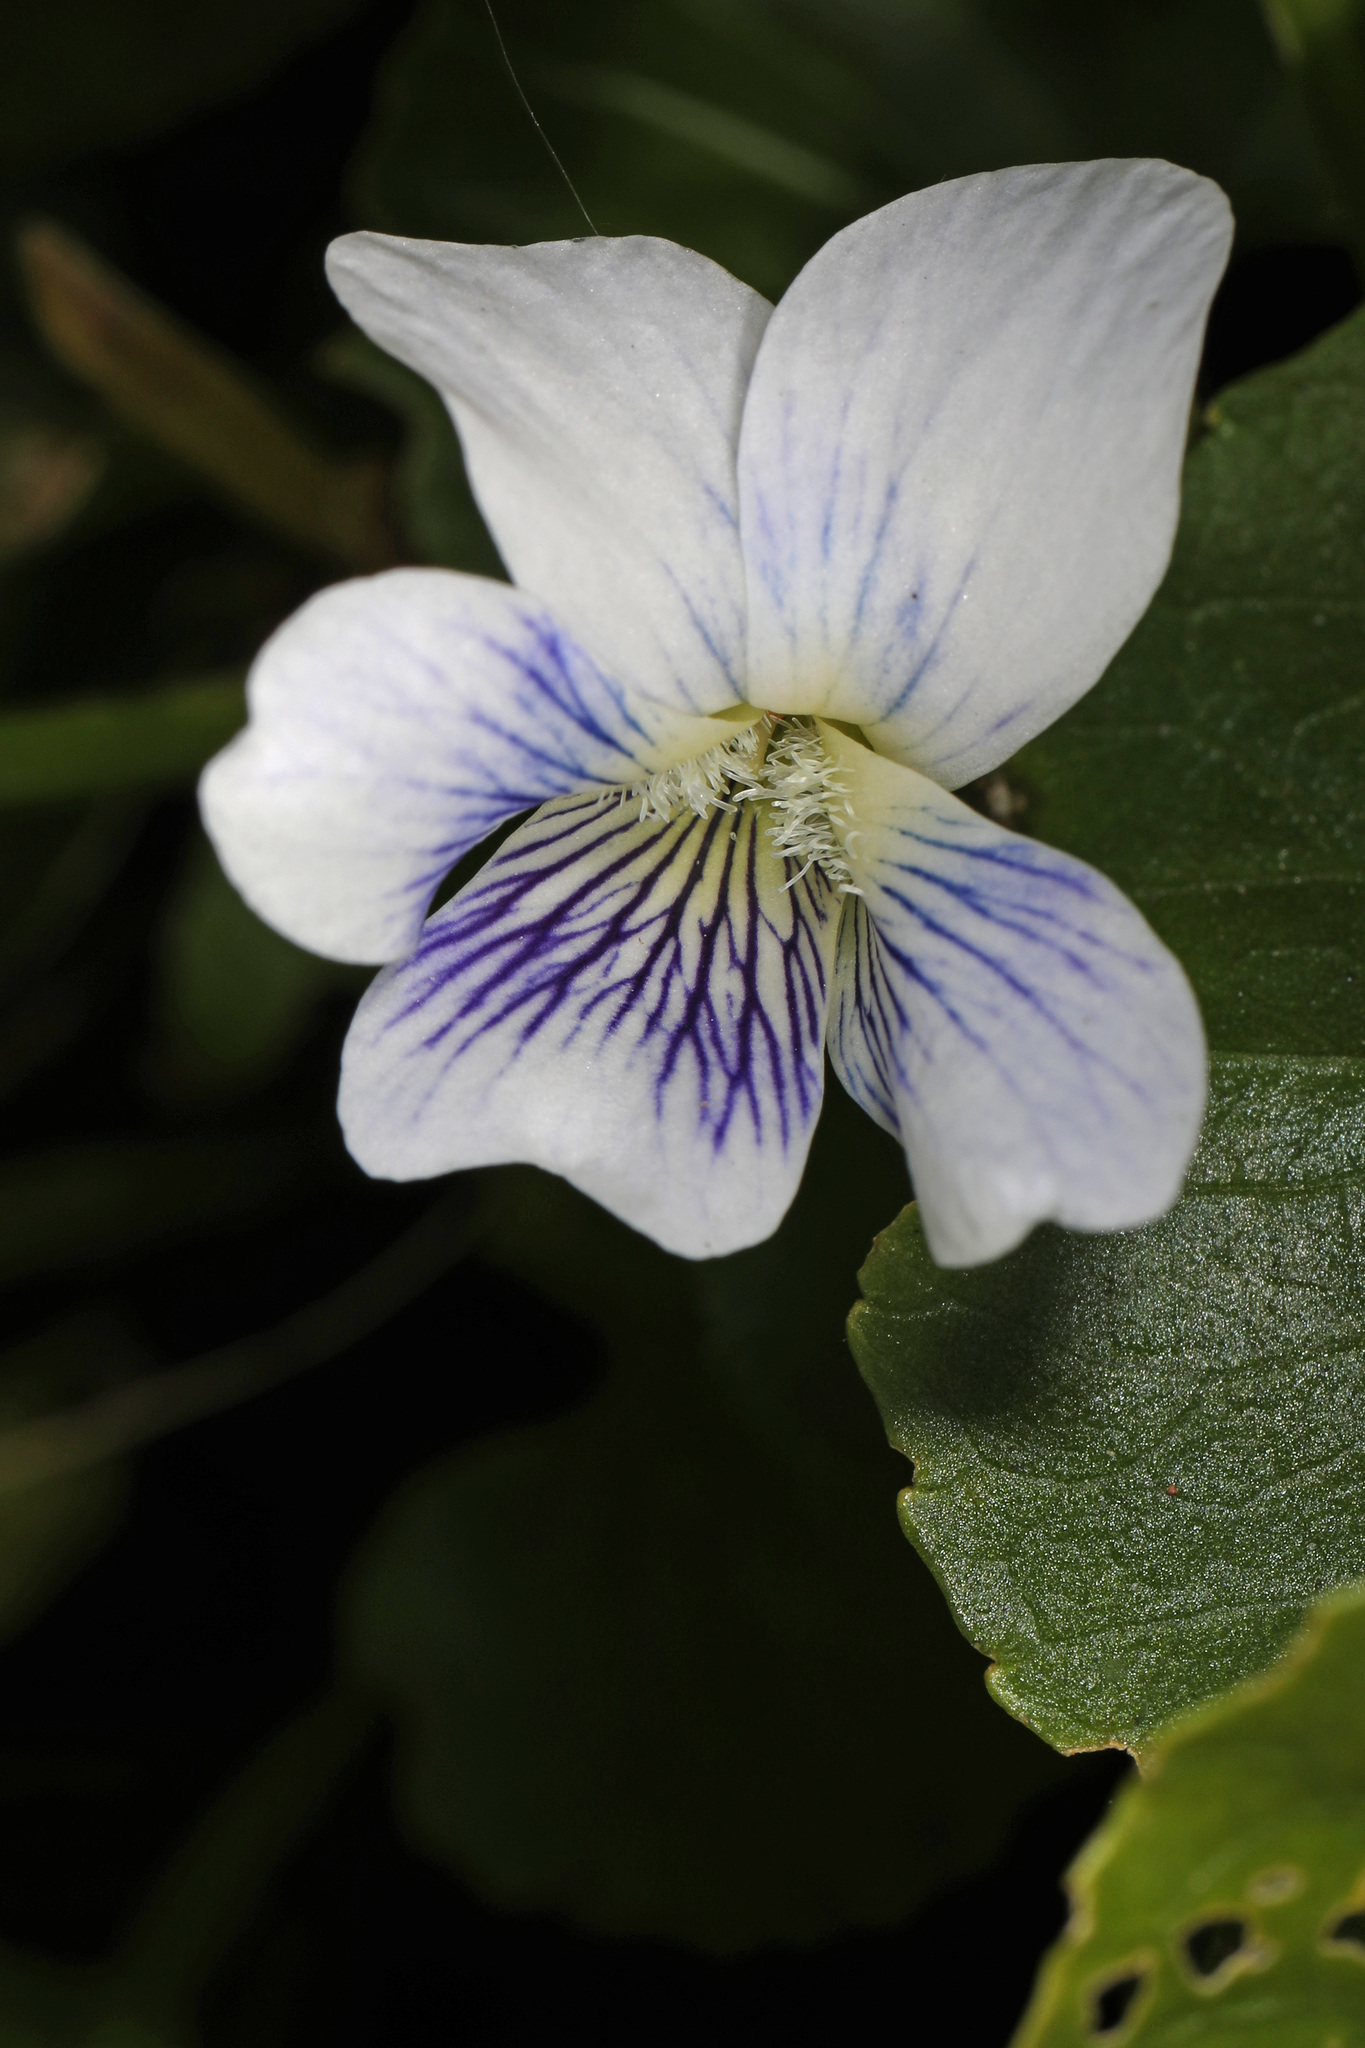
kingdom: Plantae
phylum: Tracheophyta
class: Magnoliopsida
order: Malpighiales
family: Violaceae
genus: Viola
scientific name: Viola sororia
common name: Dooryard violet
